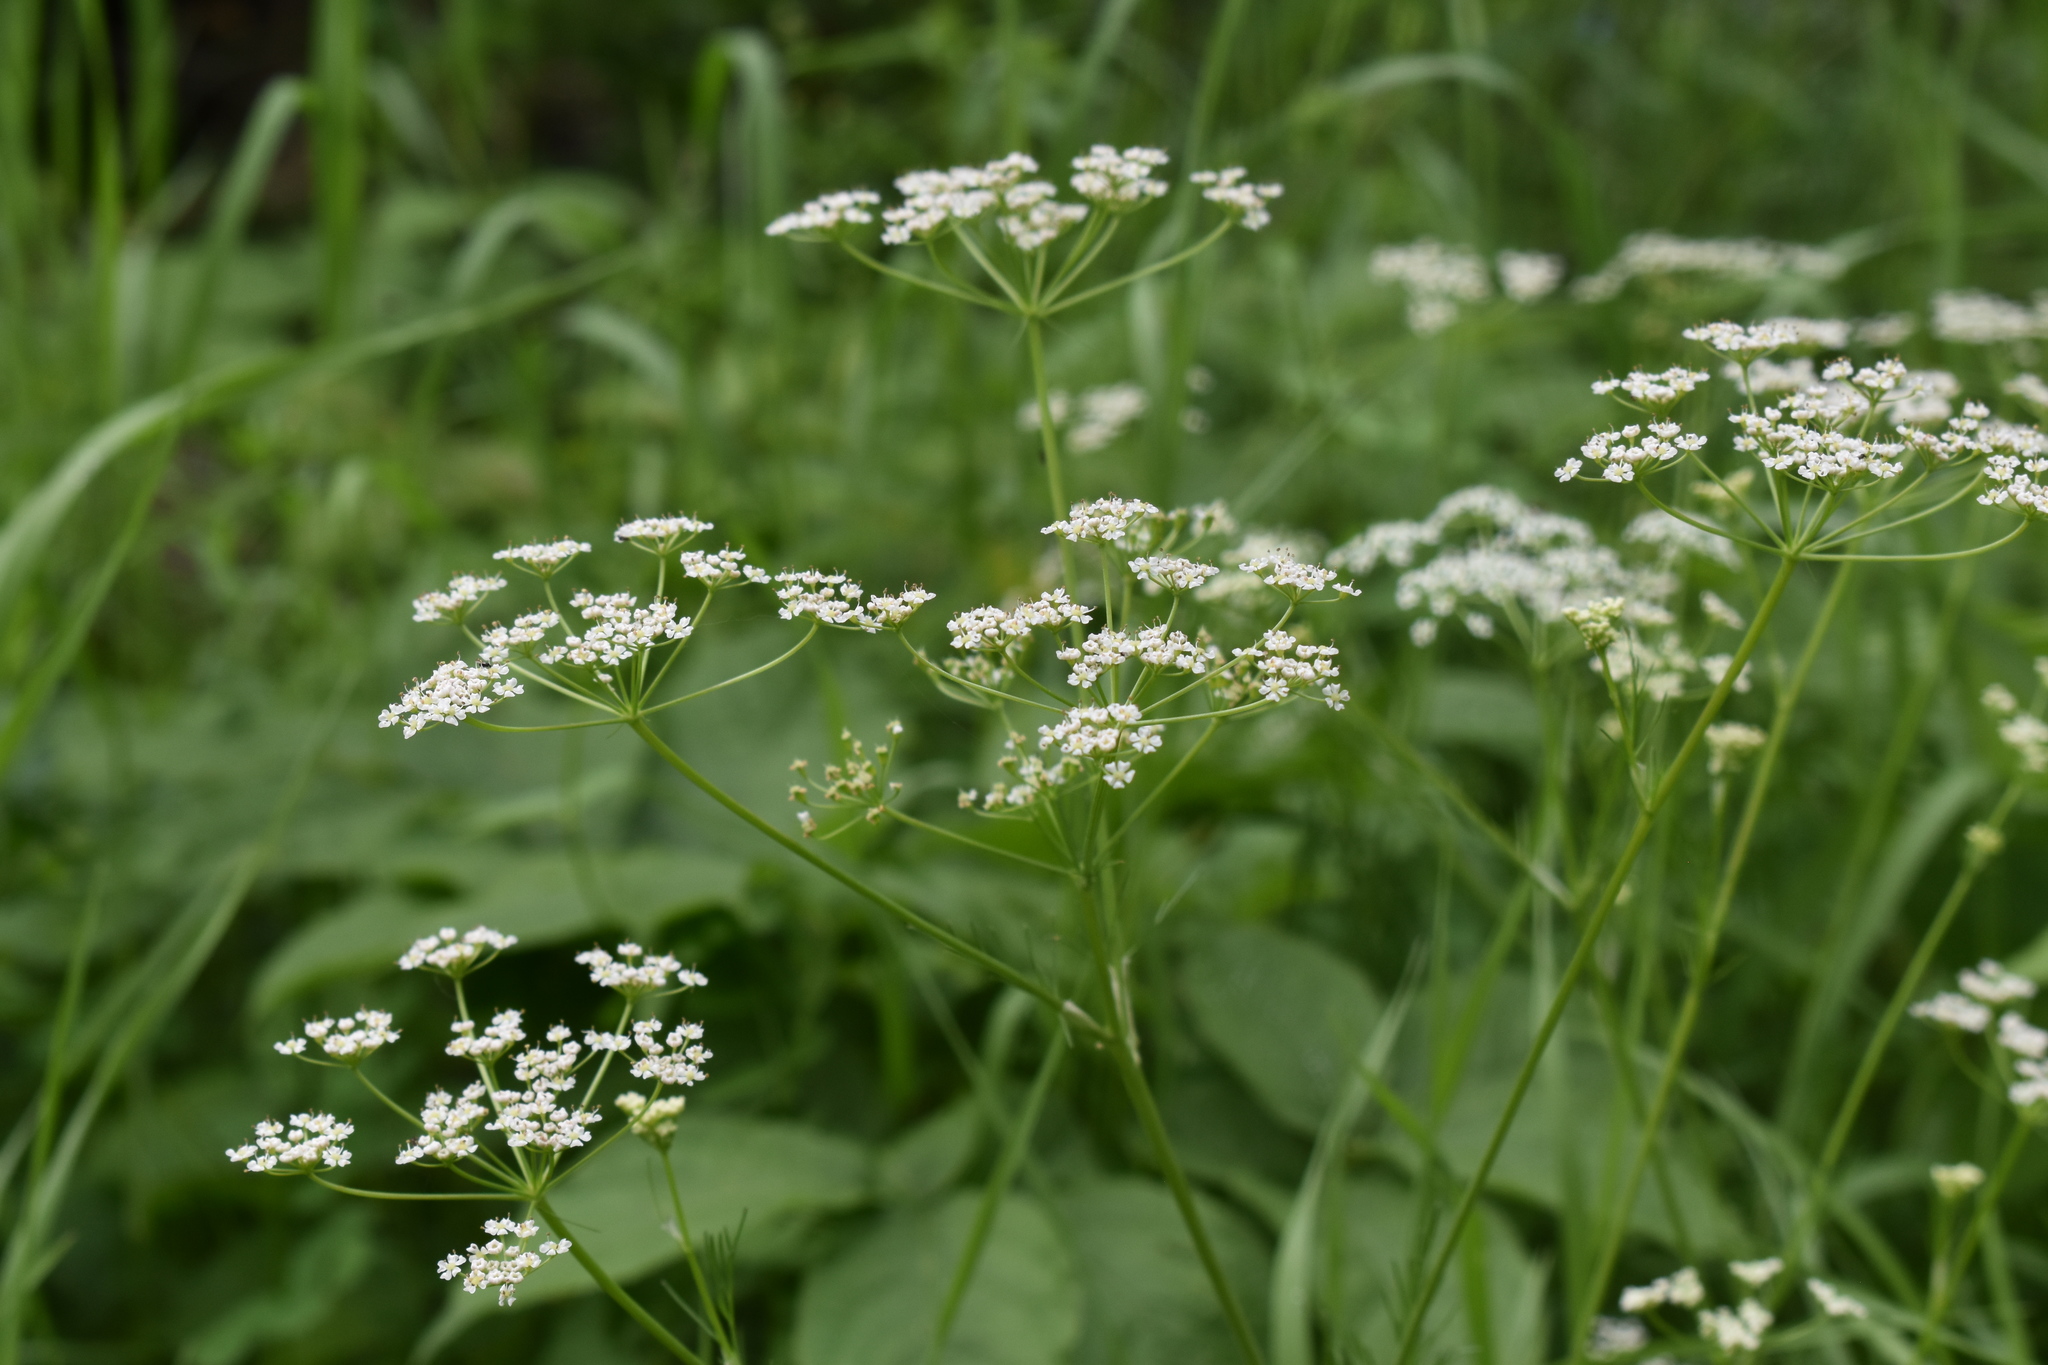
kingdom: Plantae
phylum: Tracheophyta
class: Magnoliopsida
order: Apiales
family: Apiaceae
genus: Carum
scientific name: Carum carvi
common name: Caraway
